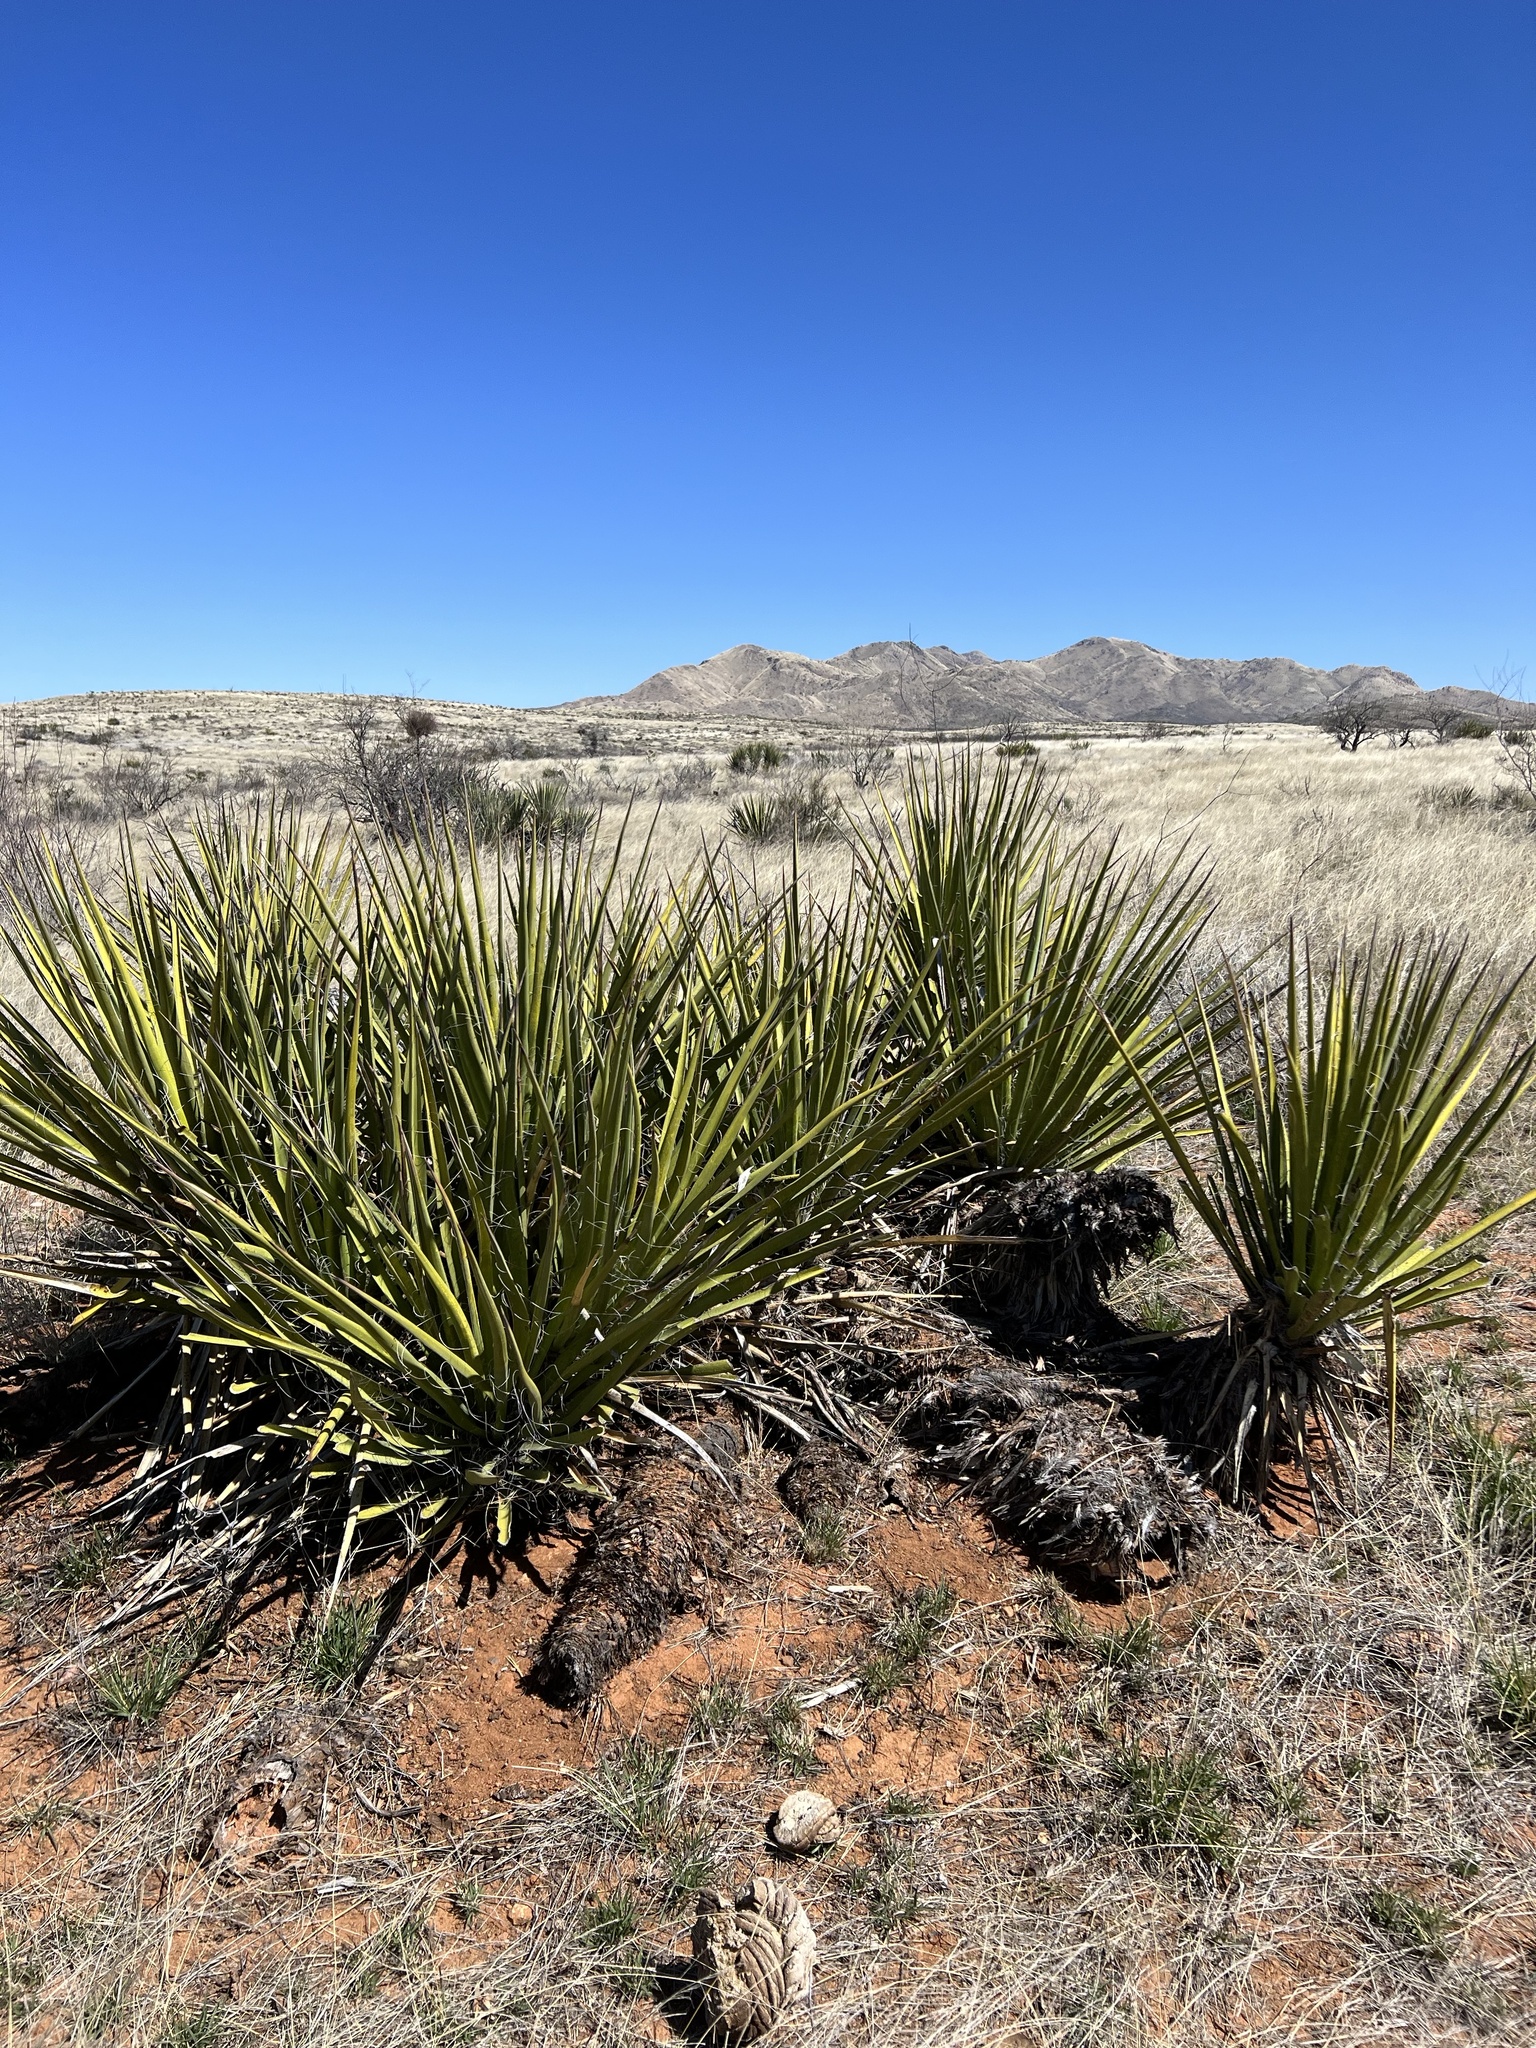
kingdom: Plantae
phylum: Tracheophyta
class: Liliopsida
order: Asparagales
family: Asparagaceae
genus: Yucca
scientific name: Yucca baccata
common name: Banana yucca
